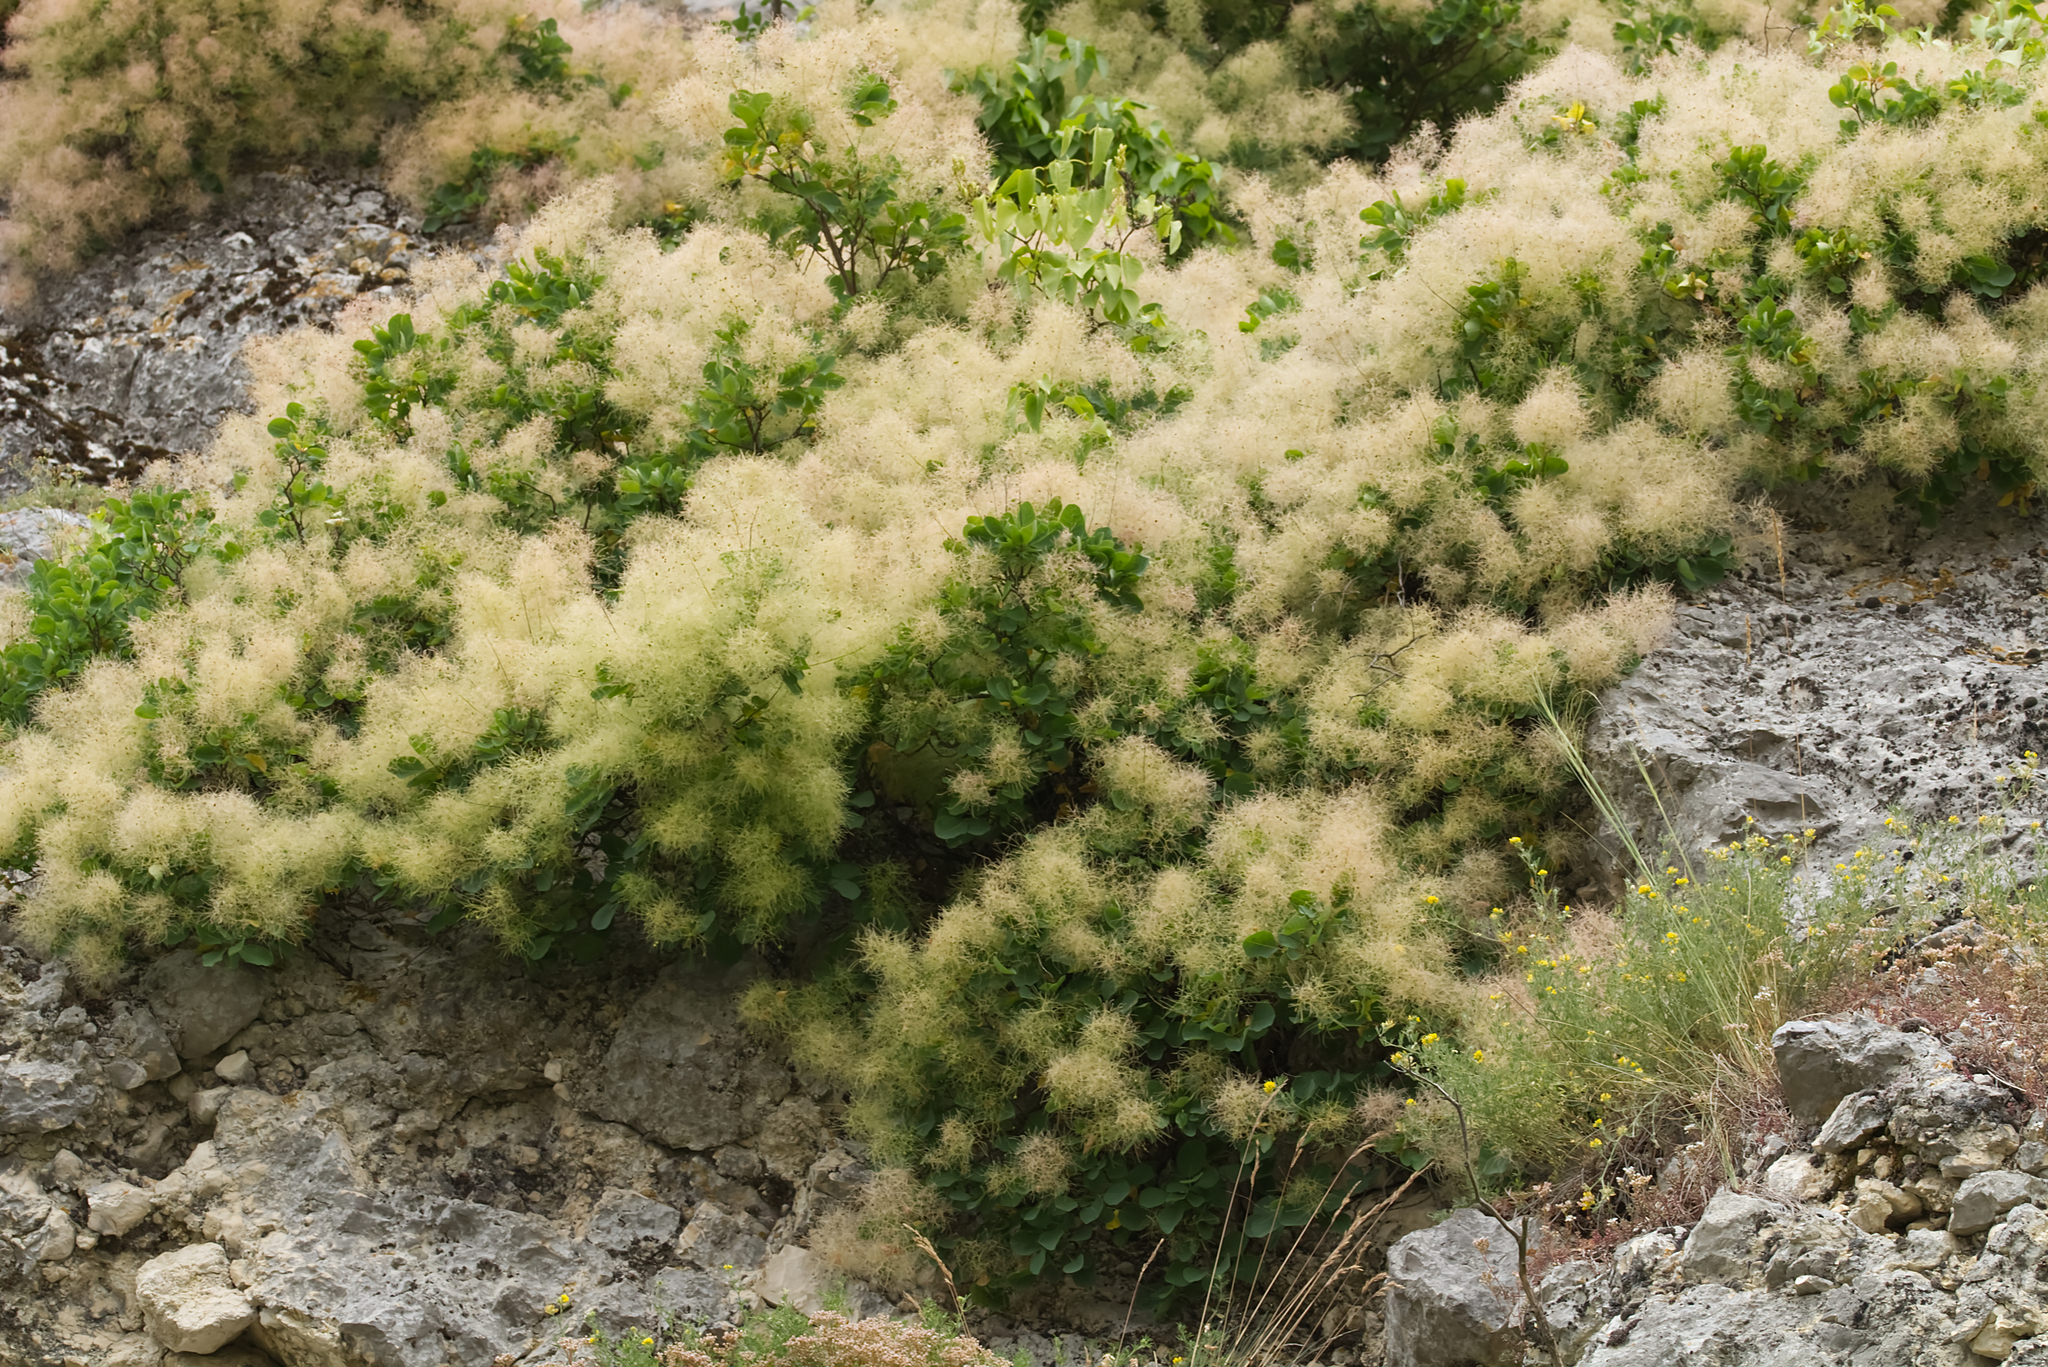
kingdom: Plantae
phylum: Tracheophyta
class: Magnoliopsida
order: Sapindales
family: Anacardiaceae
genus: Cotinus
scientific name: Cotinus coggygria
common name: Smoke-tree
